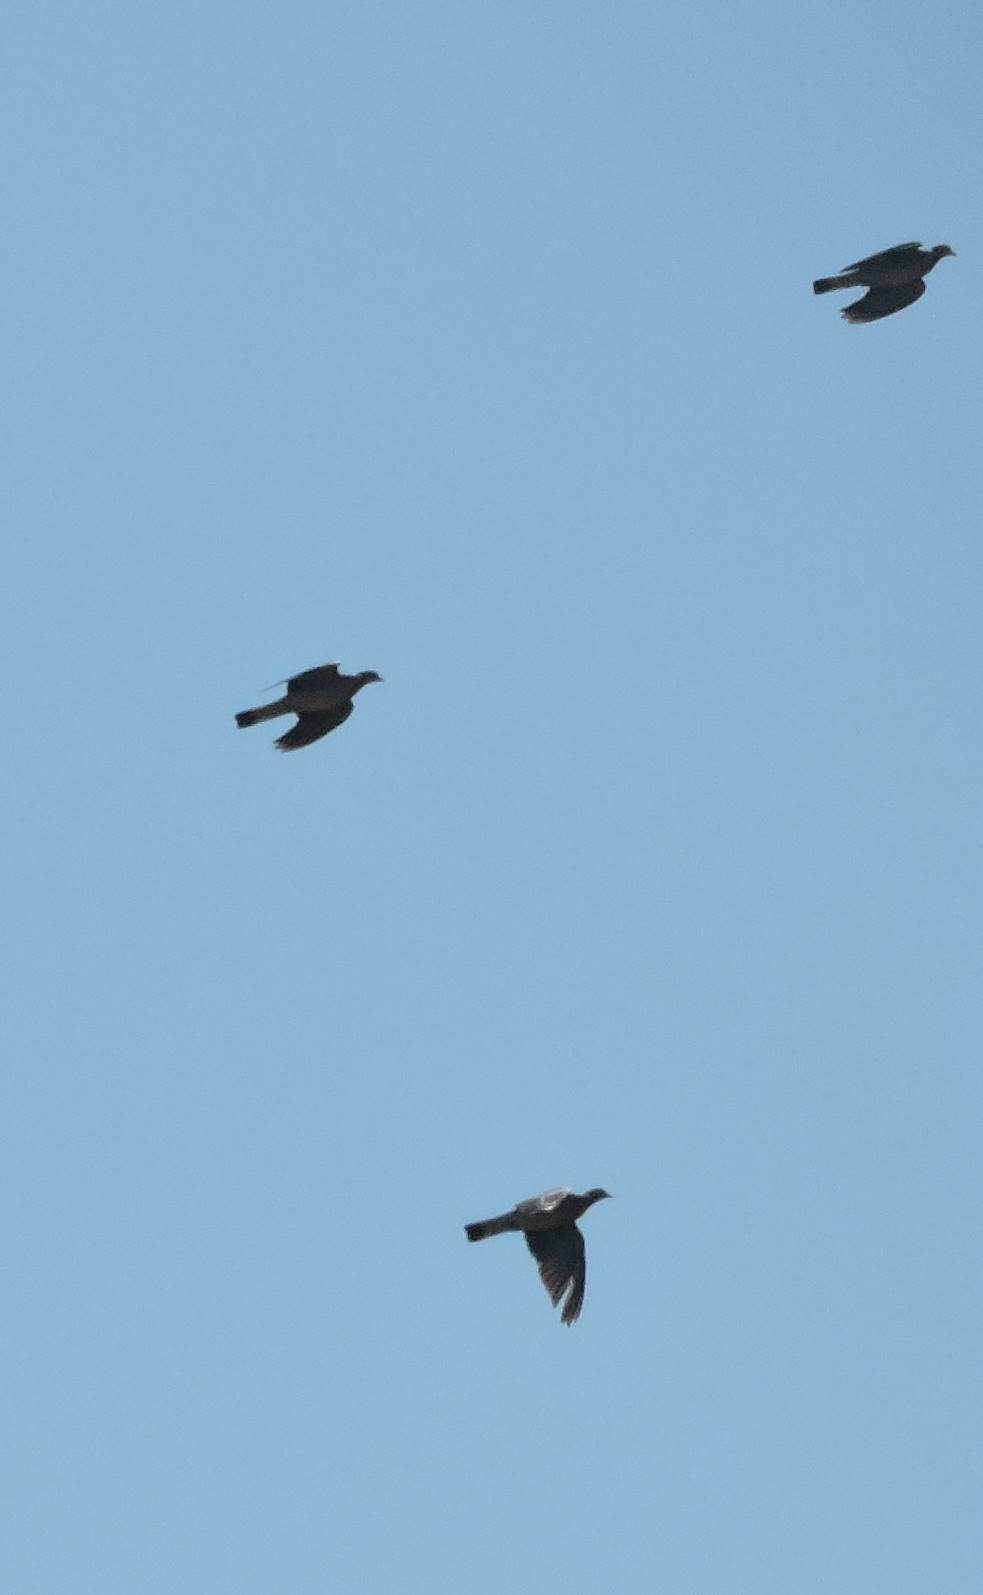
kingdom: Animalia
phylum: Chordata
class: Aves
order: Columbiformes
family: Columbidae
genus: Columba
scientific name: Columba palumbus
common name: Common wood pigeon
